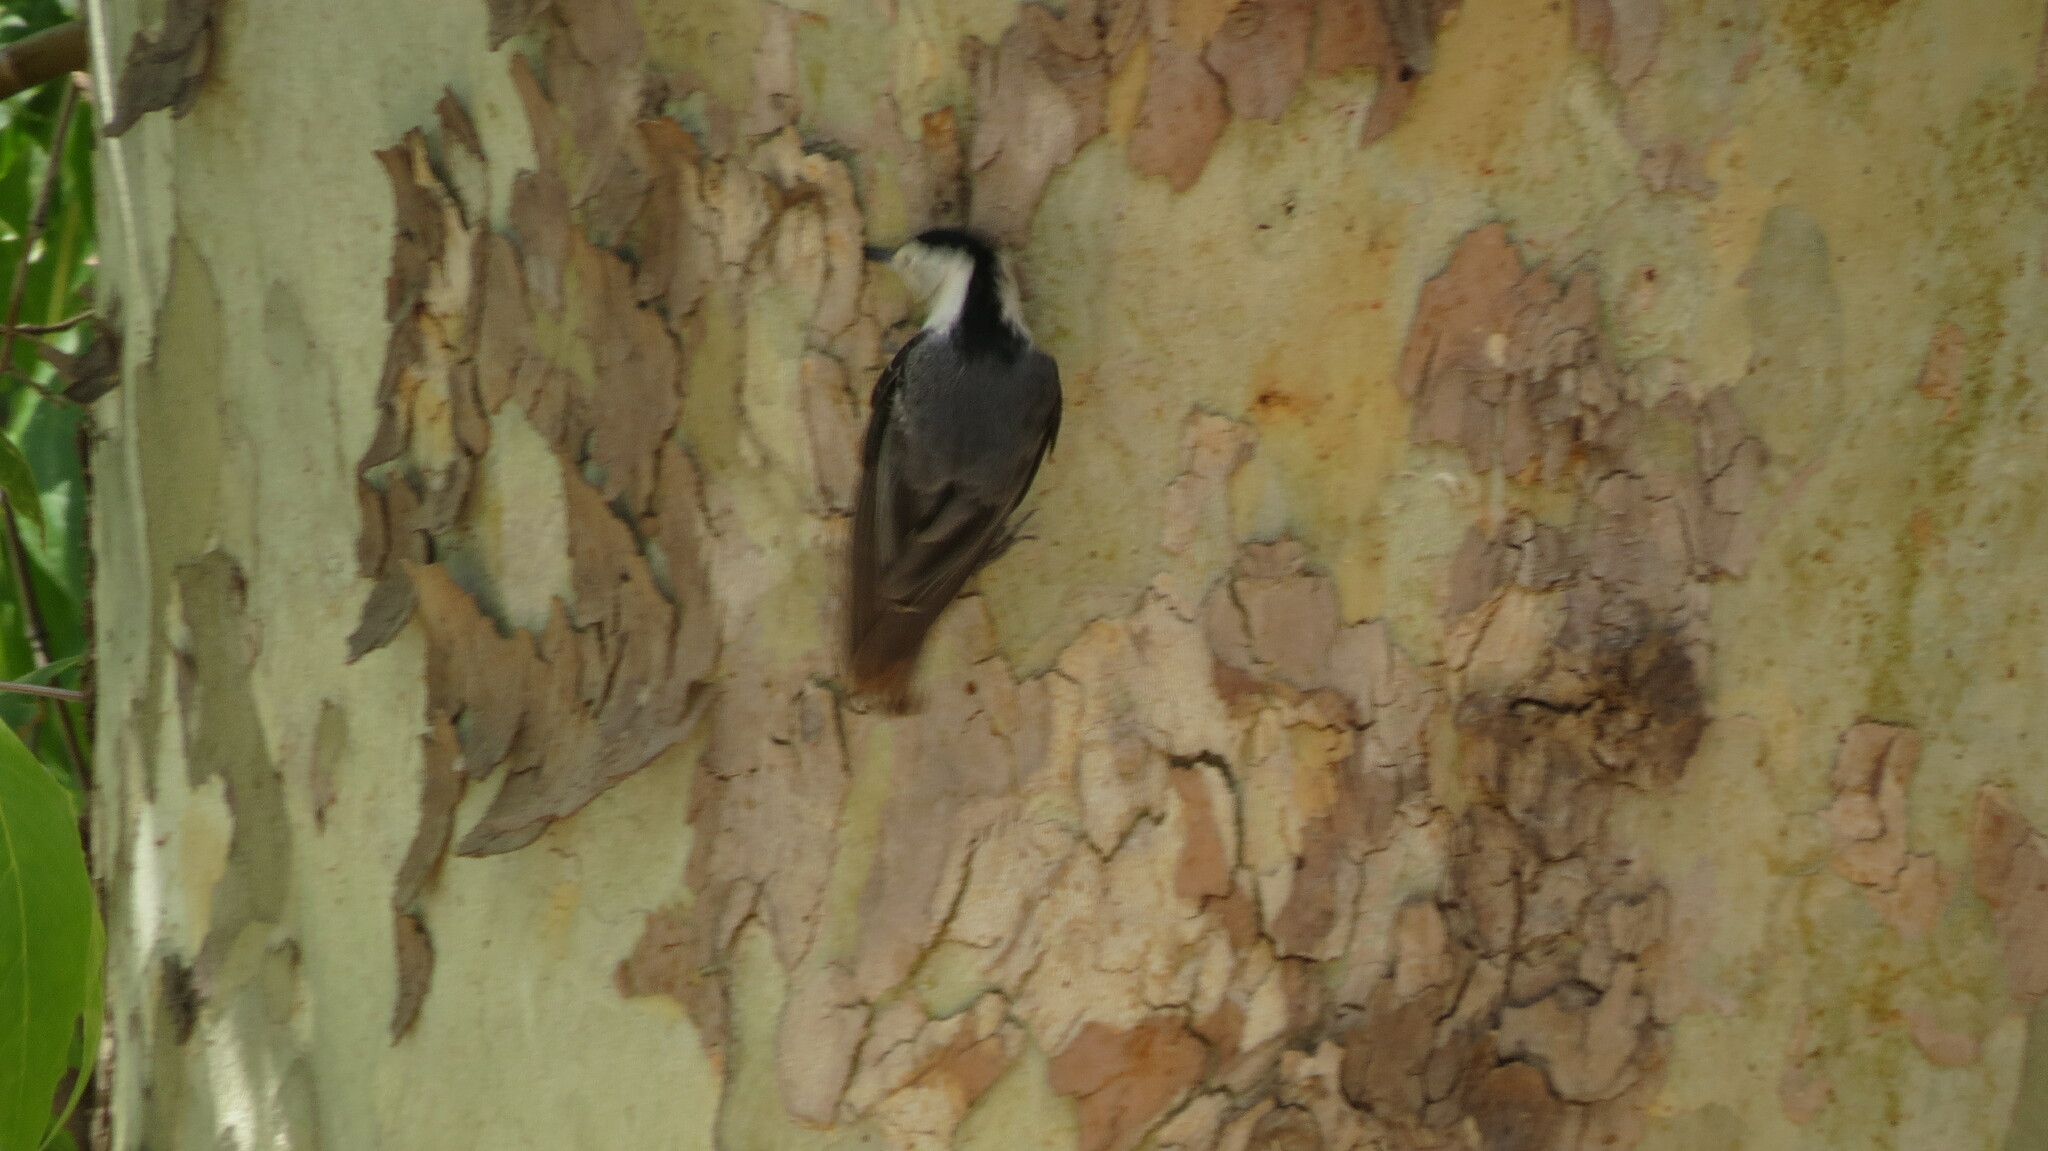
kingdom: Animalia
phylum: Chordata
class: Aves
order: Passeriformes
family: Sittidae
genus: Sitta
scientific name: Sitta carolinensis
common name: White-breasted nuthatch
